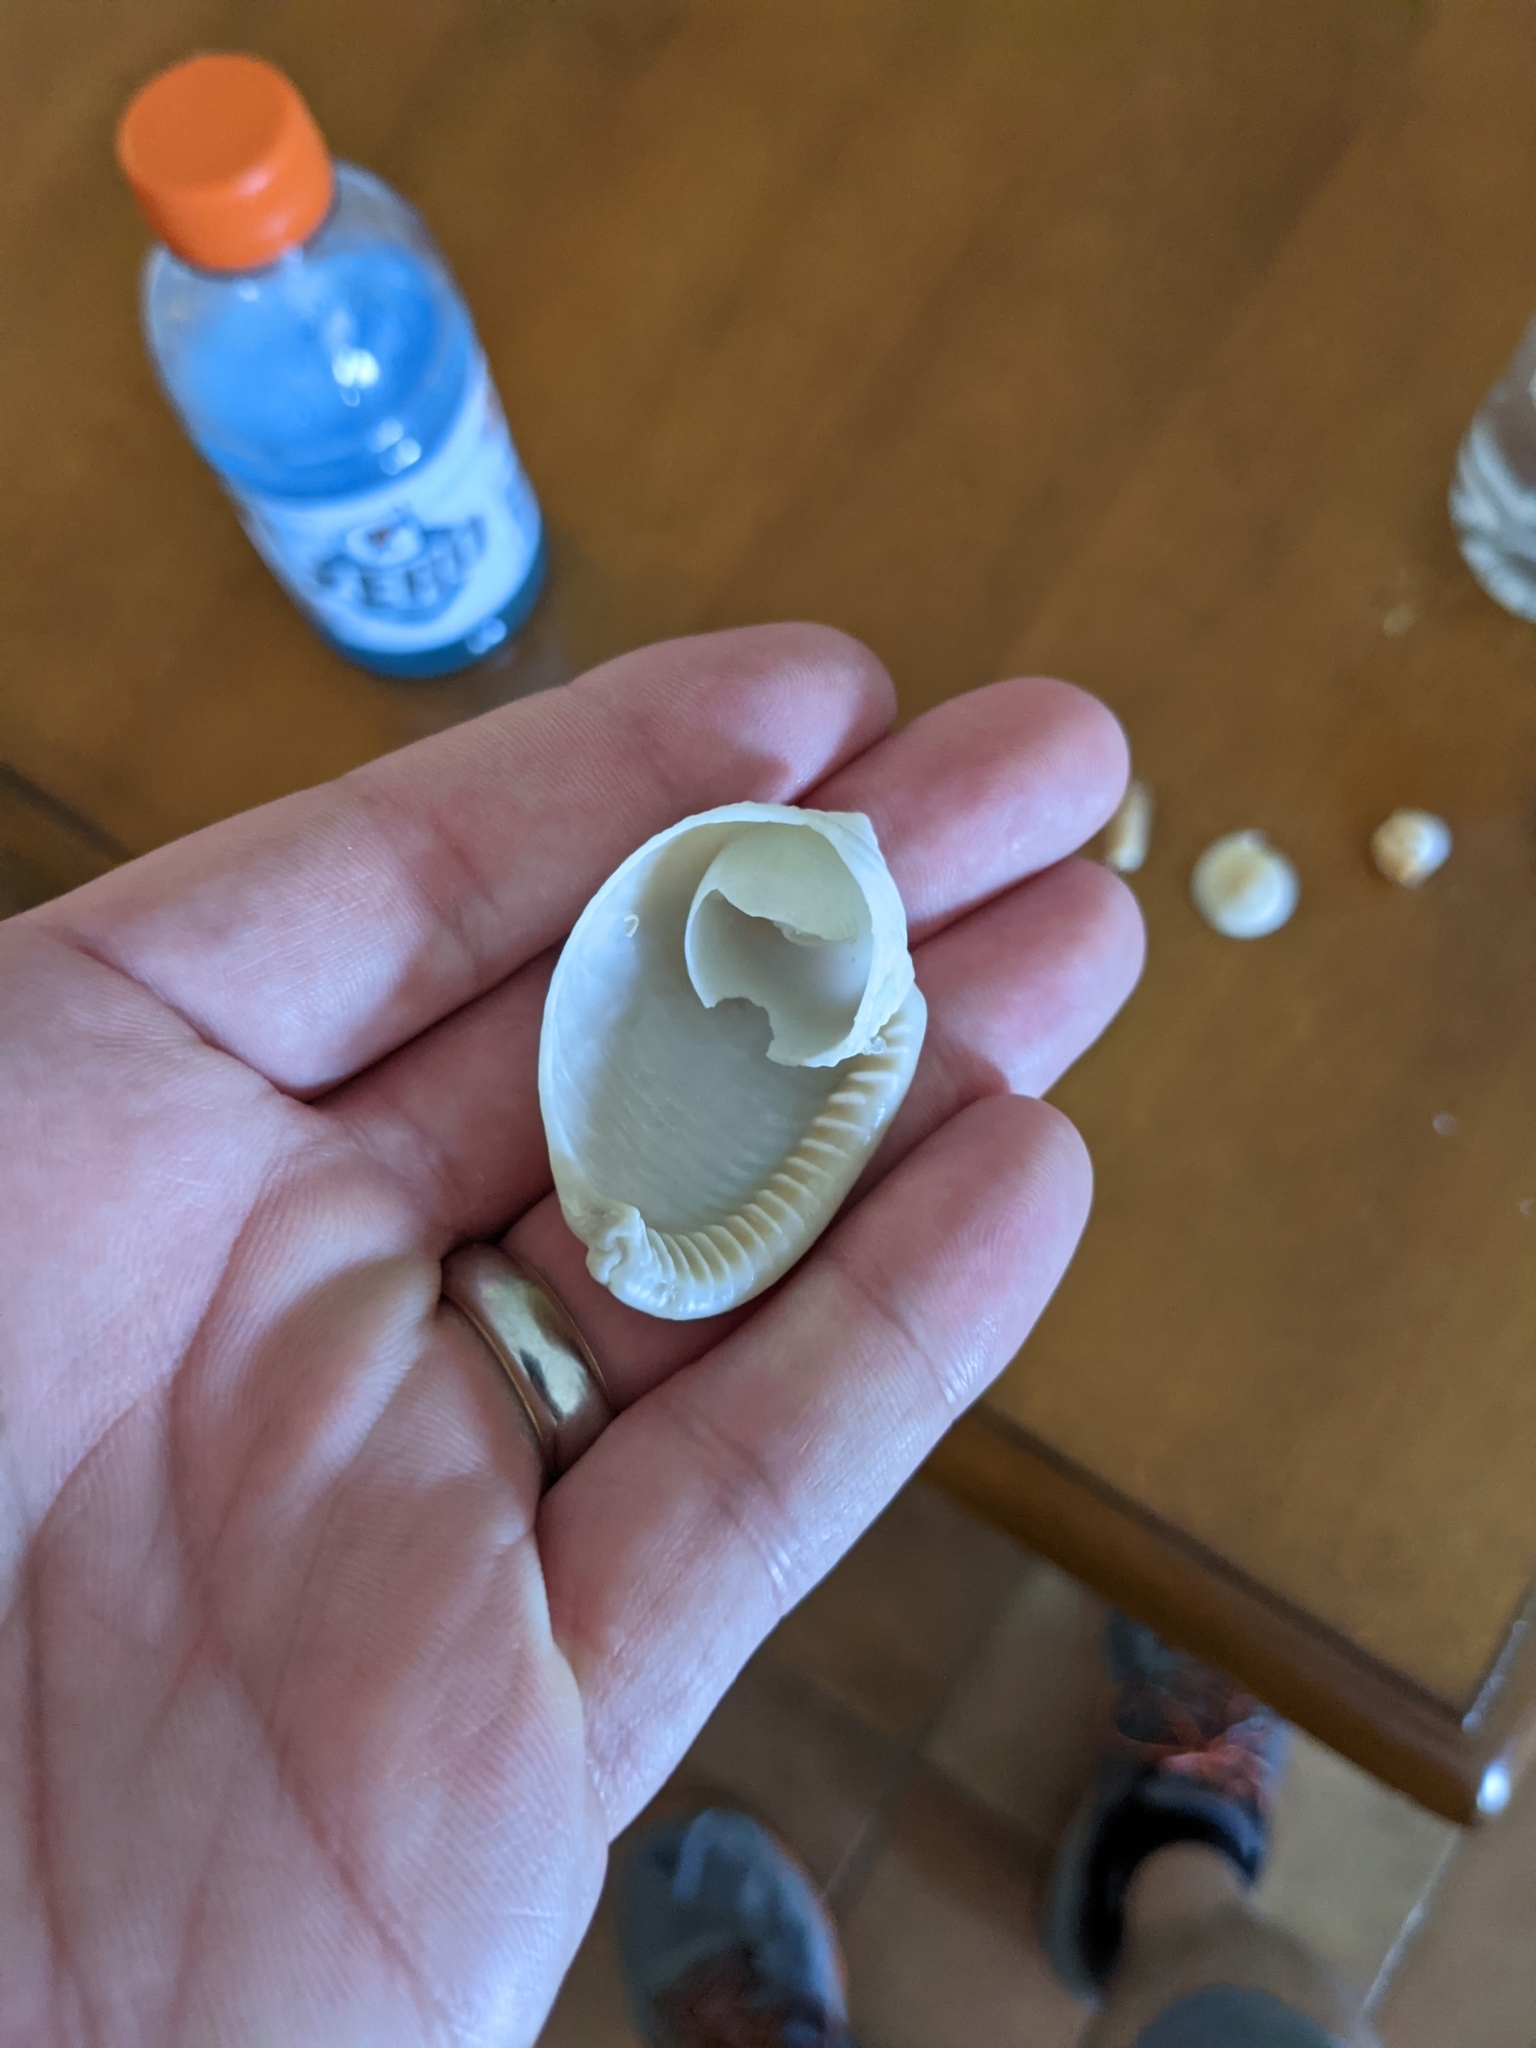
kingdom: Animalia
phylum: Mollusca
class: Gastropoda
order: Littorinimorpha
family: Cassidae
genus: Semicassis
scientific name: Semicassis granulata
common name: Scotch bonnet
